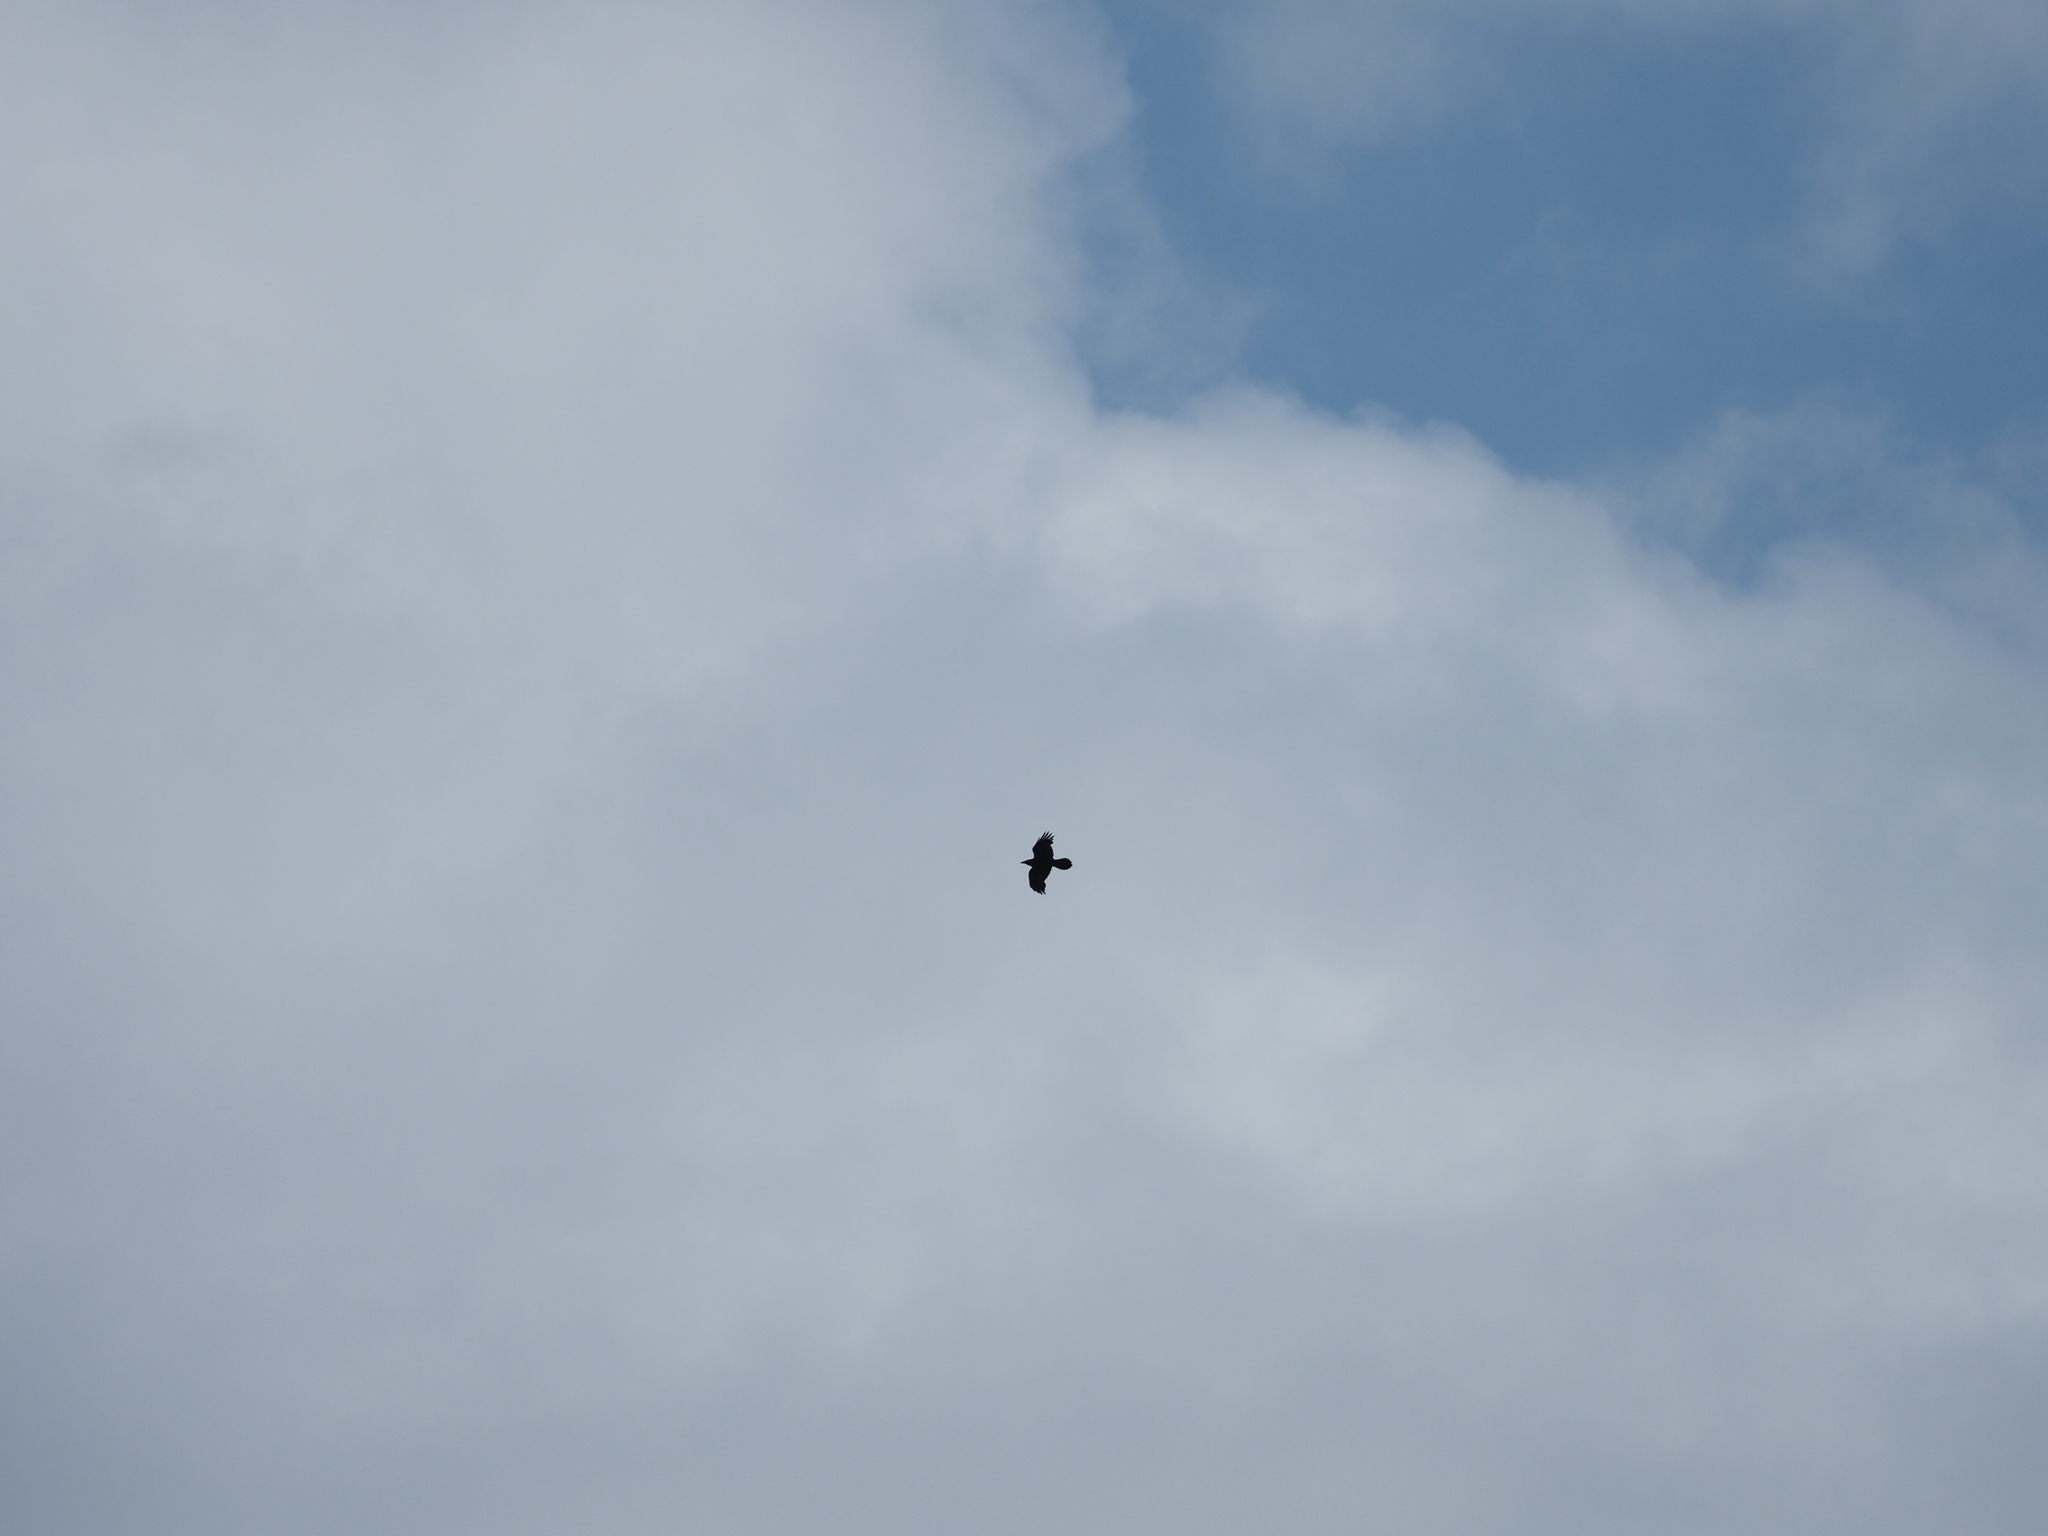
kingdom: Animalia
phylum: Chordata
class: Aves
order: Passeriformes
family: Corvidae
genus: Corvus
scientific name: Corvus corax
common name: Common raven
